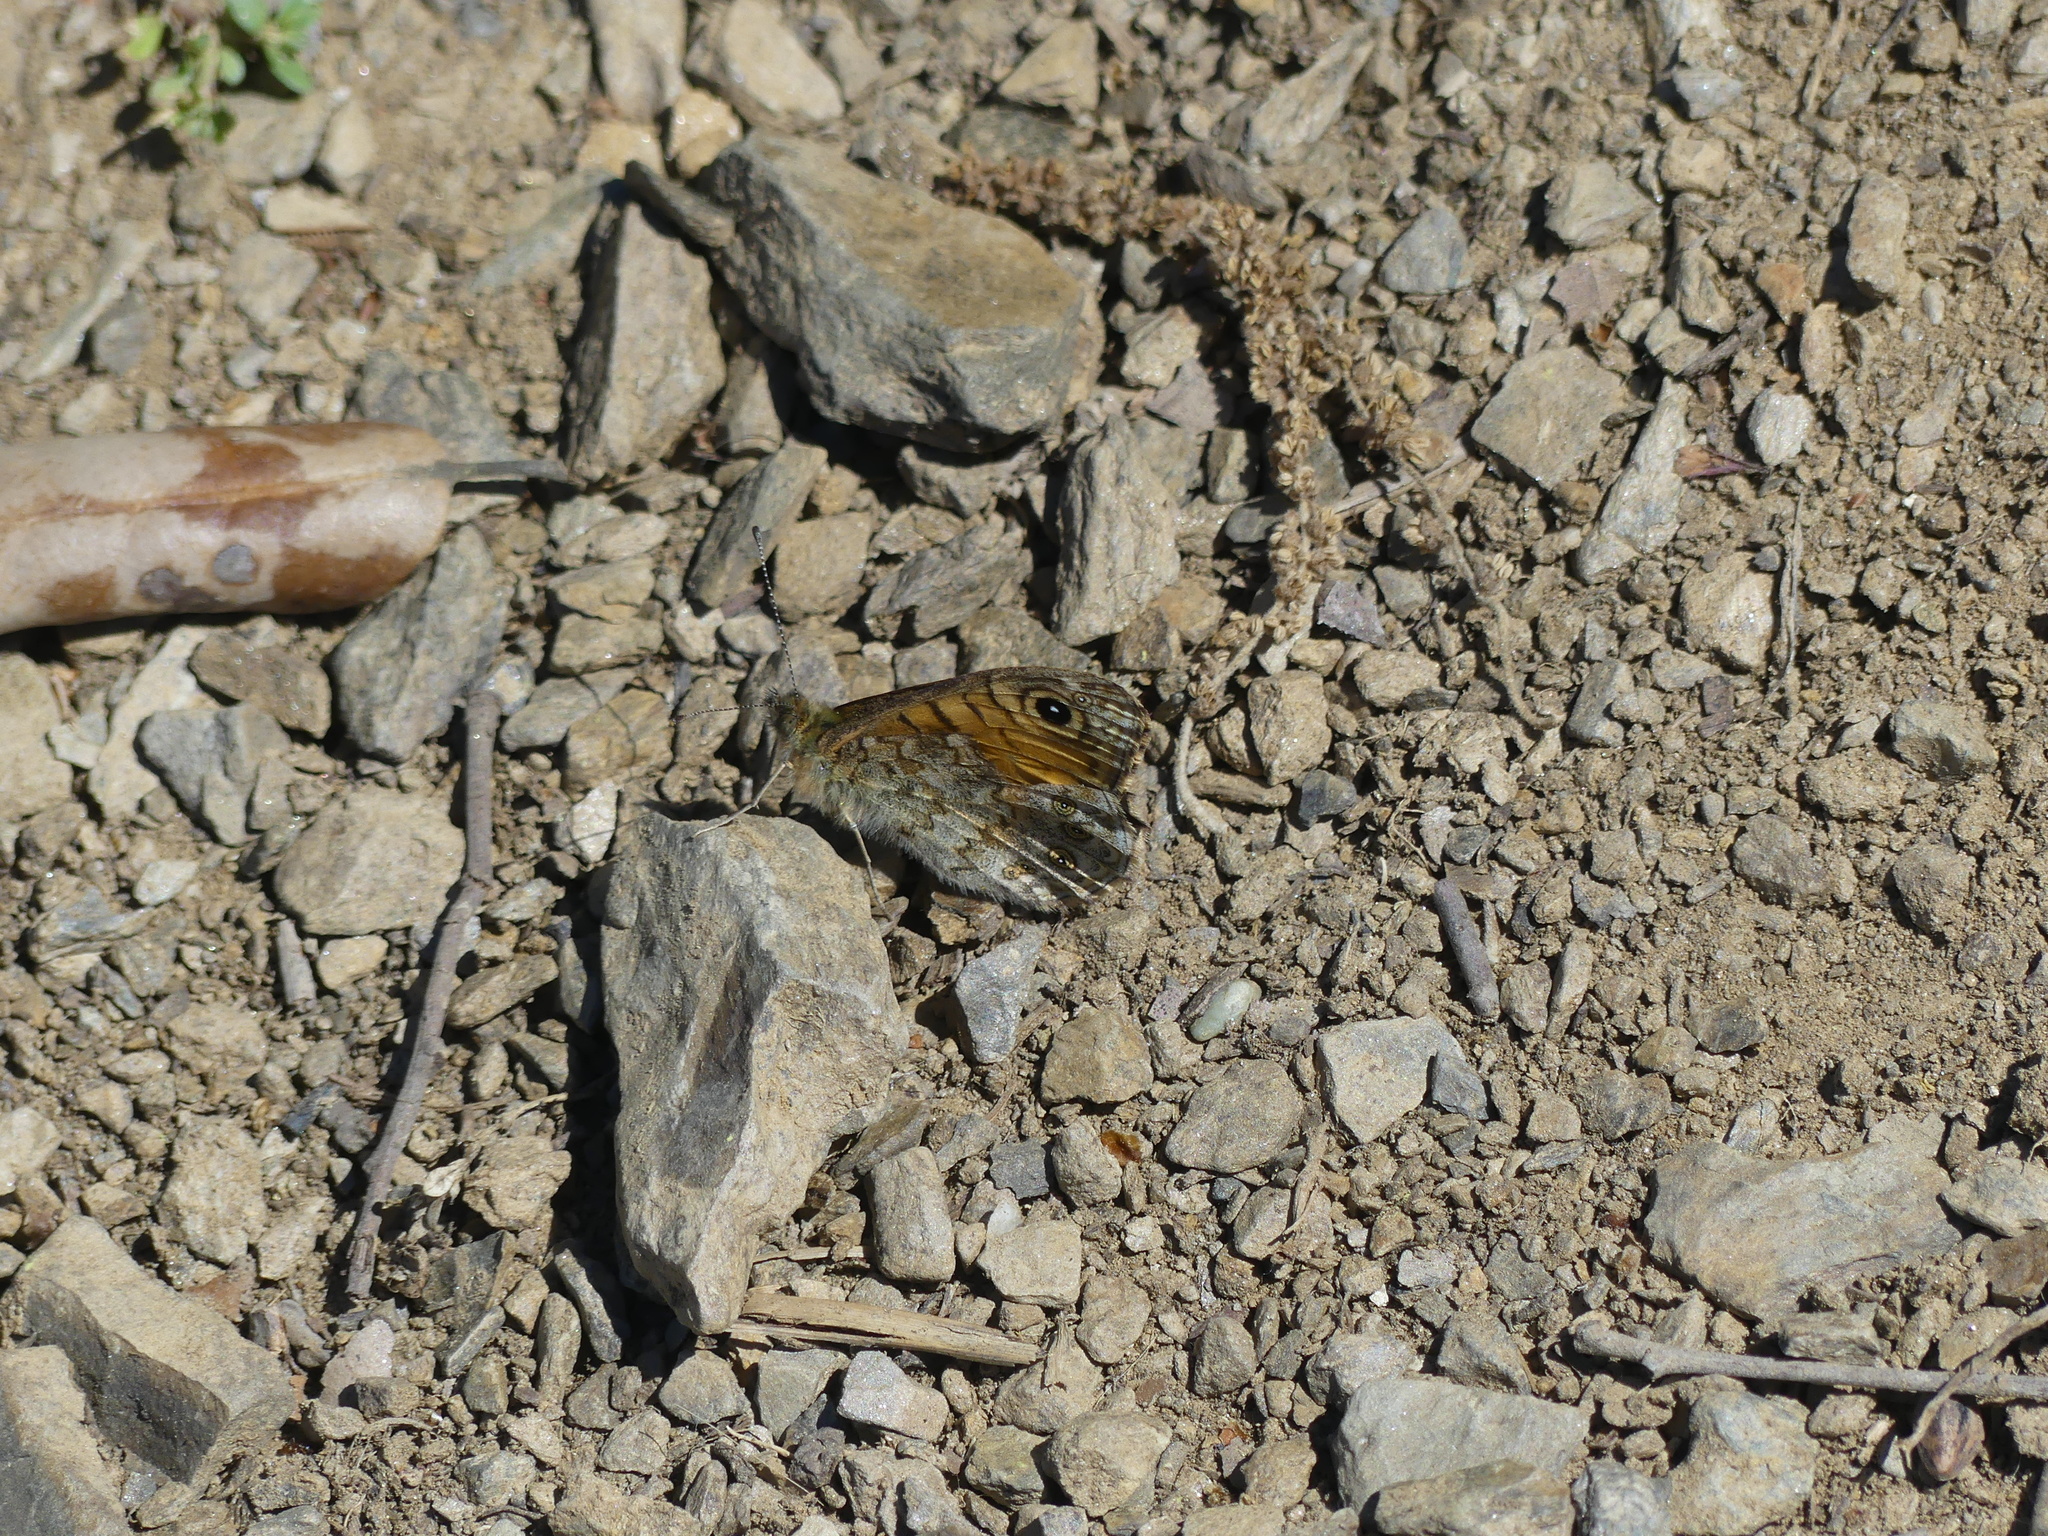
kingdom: Animalia
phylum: Arthropoda
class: Insecta
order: Lepidoptera
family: Nymphalidae
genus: Pararge
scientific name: Pararge Lasiommata megera
